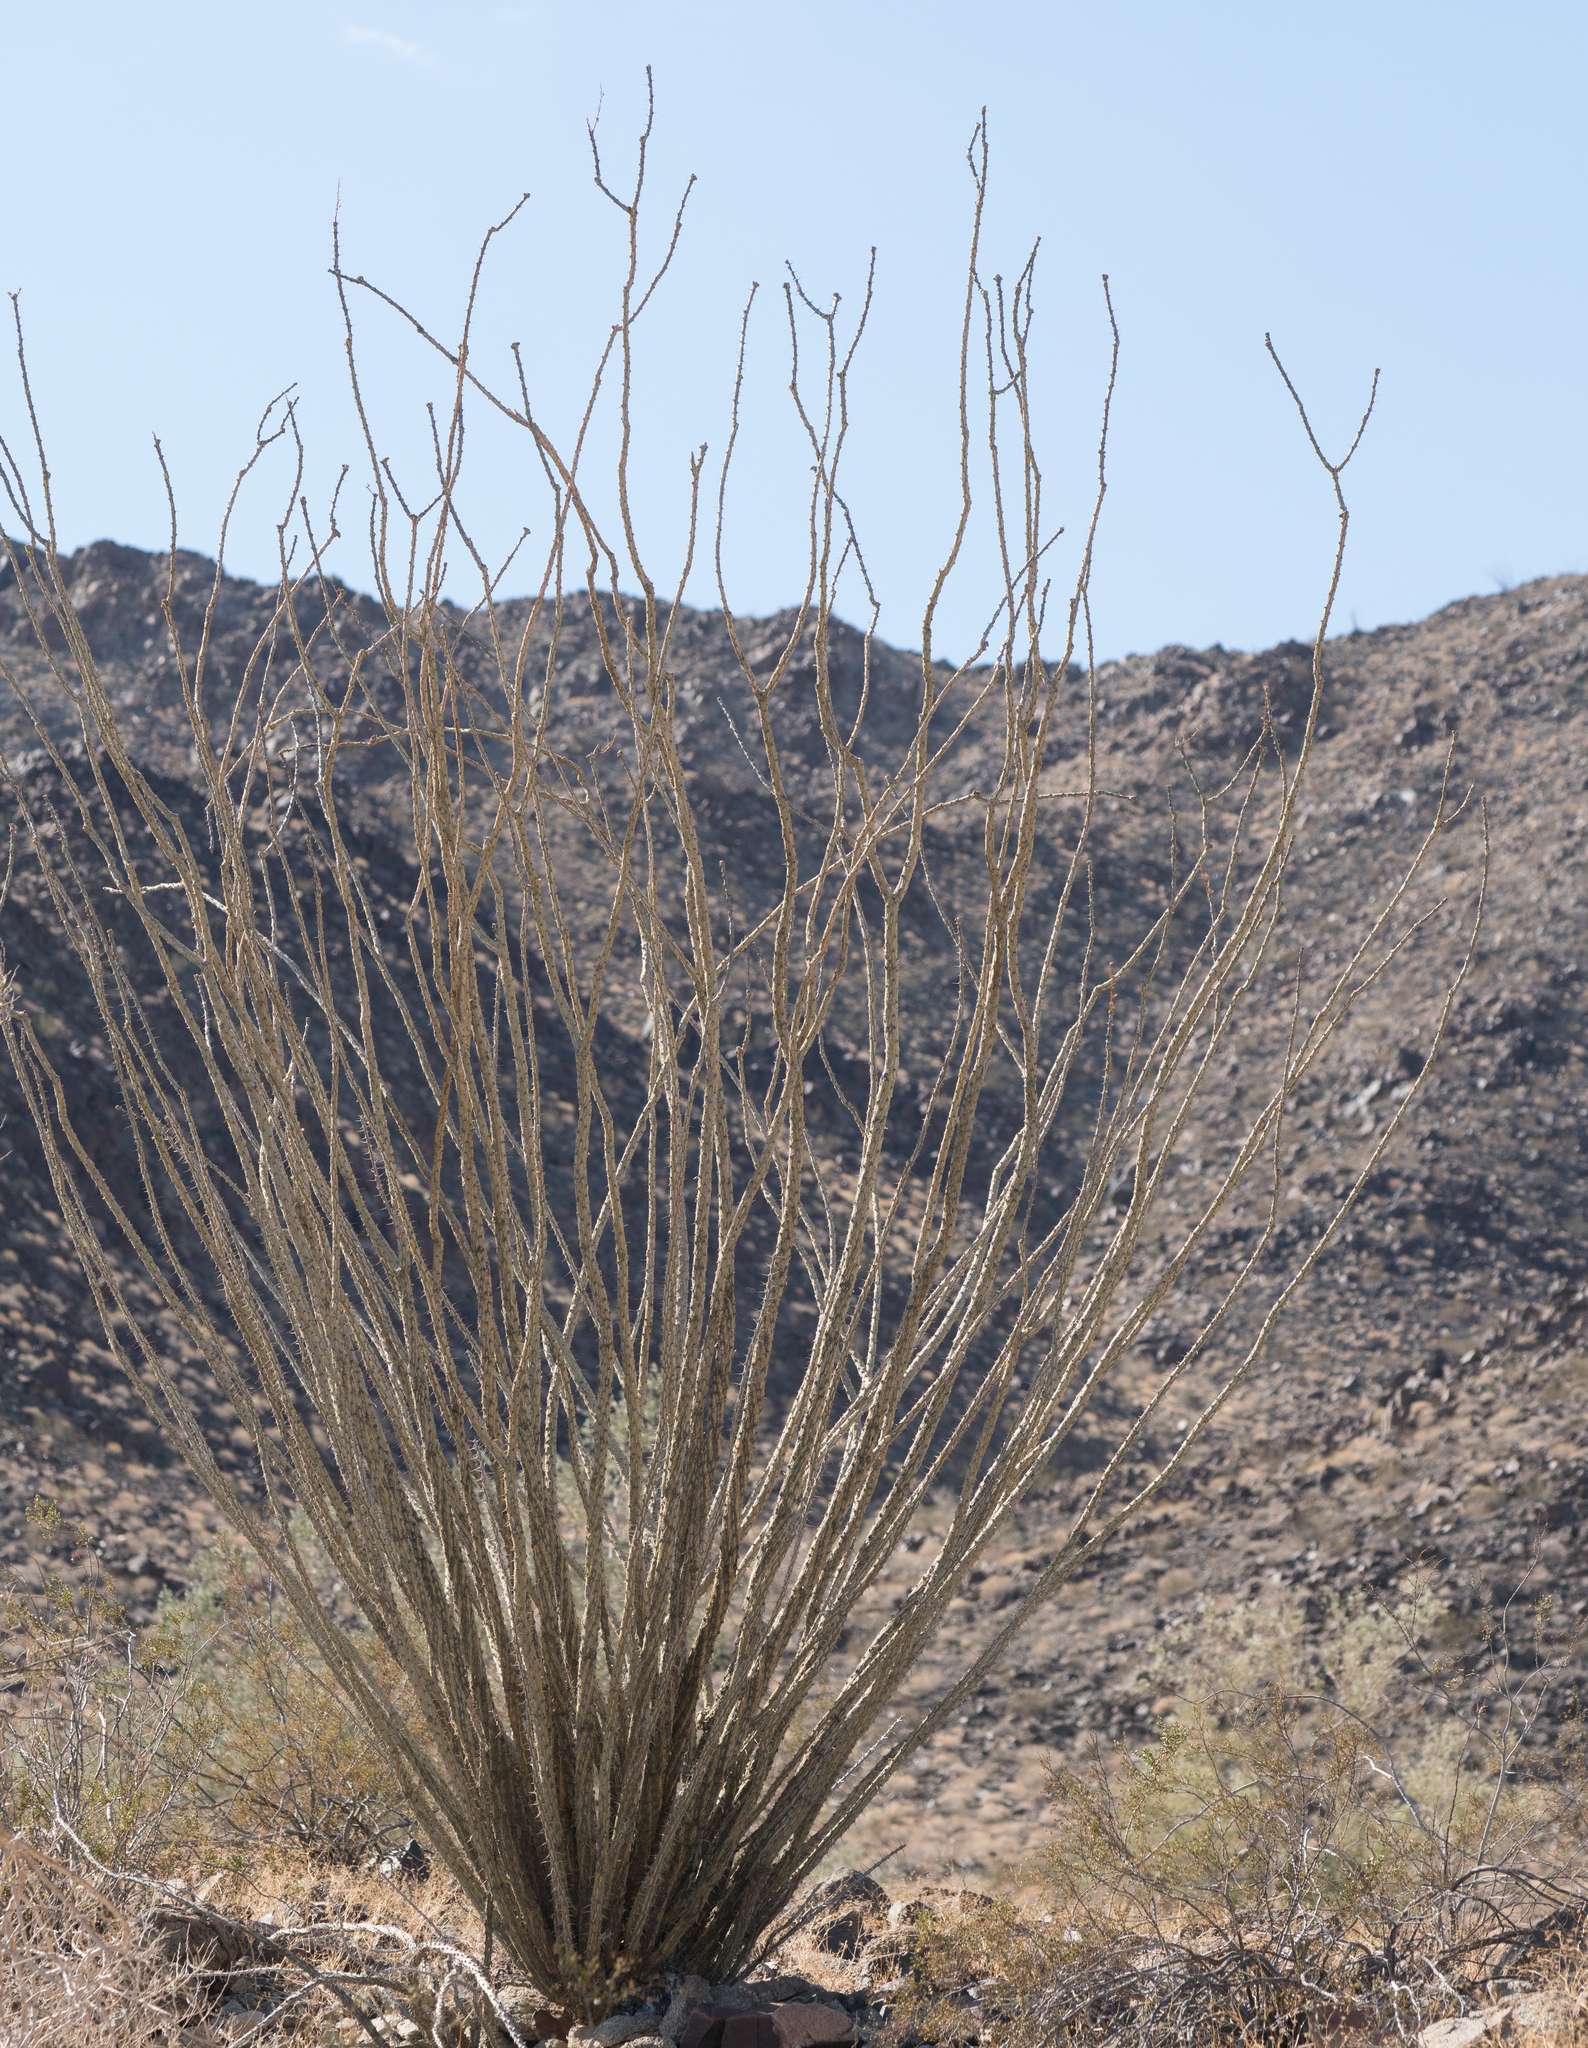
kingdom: Plantae
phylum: Tracheophyta
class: Magnoliopsida
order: Ericales
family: Fouquieriaceae
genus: Fouquieria
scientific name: Fouquieria splendens
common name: Vine-cactus
